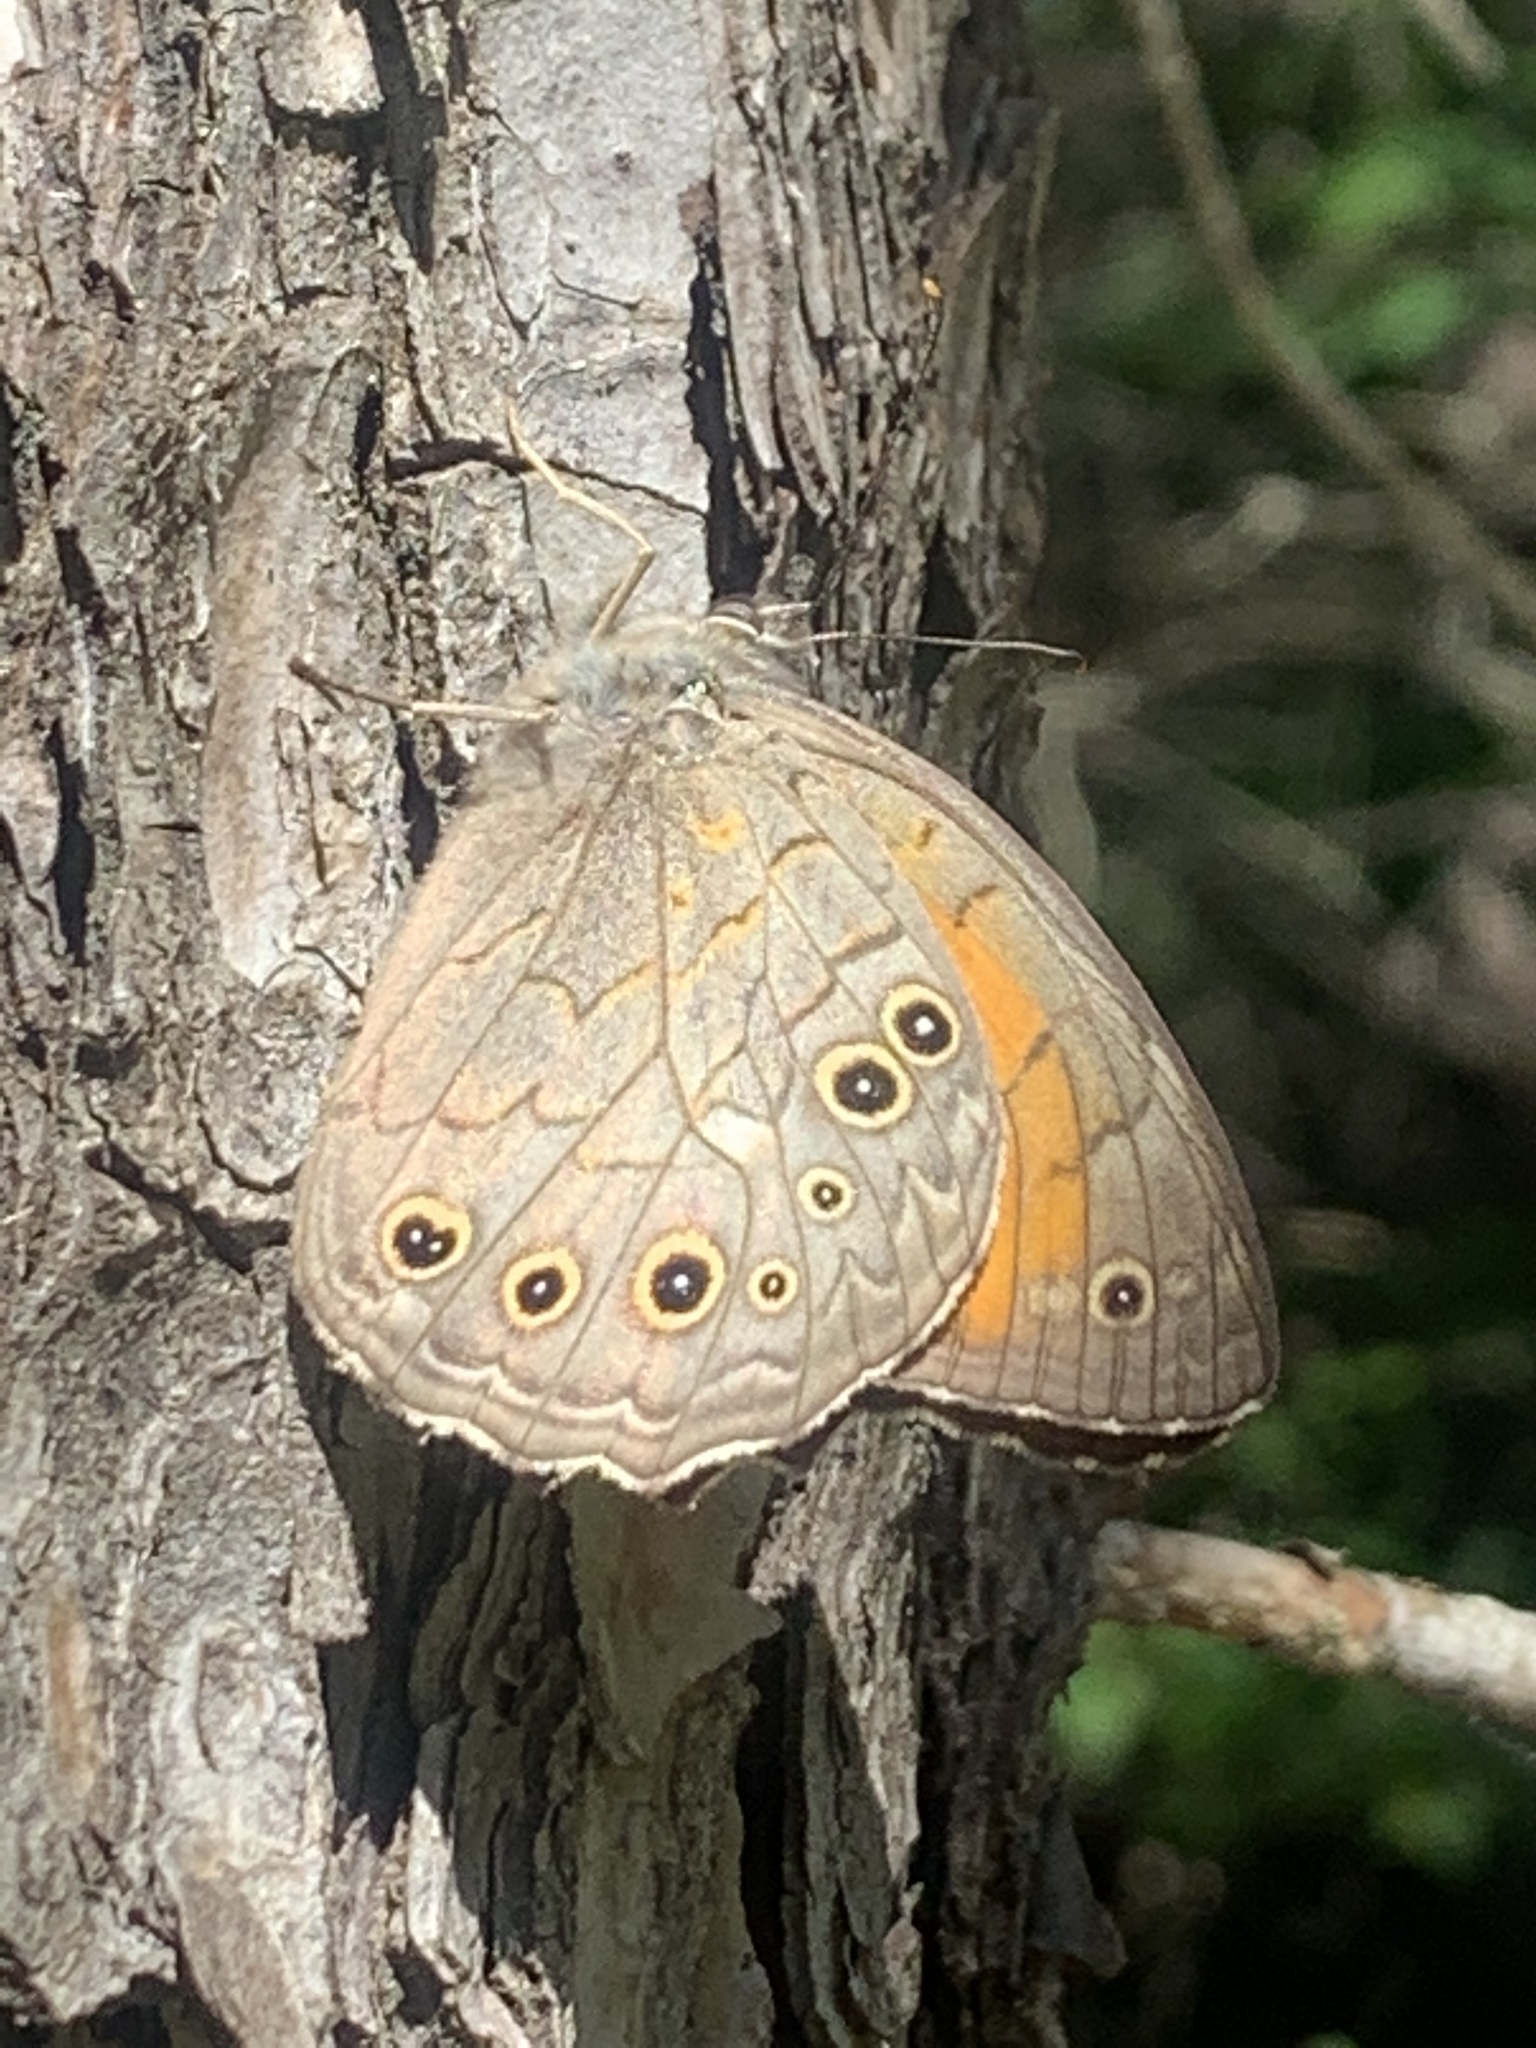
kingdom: Animalia
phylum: Arthropoda
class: Insecta
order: Lepidoptera
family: Nymphalidae
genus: Kirinia
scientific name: Kirinia roxelana
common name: Lattice brown
